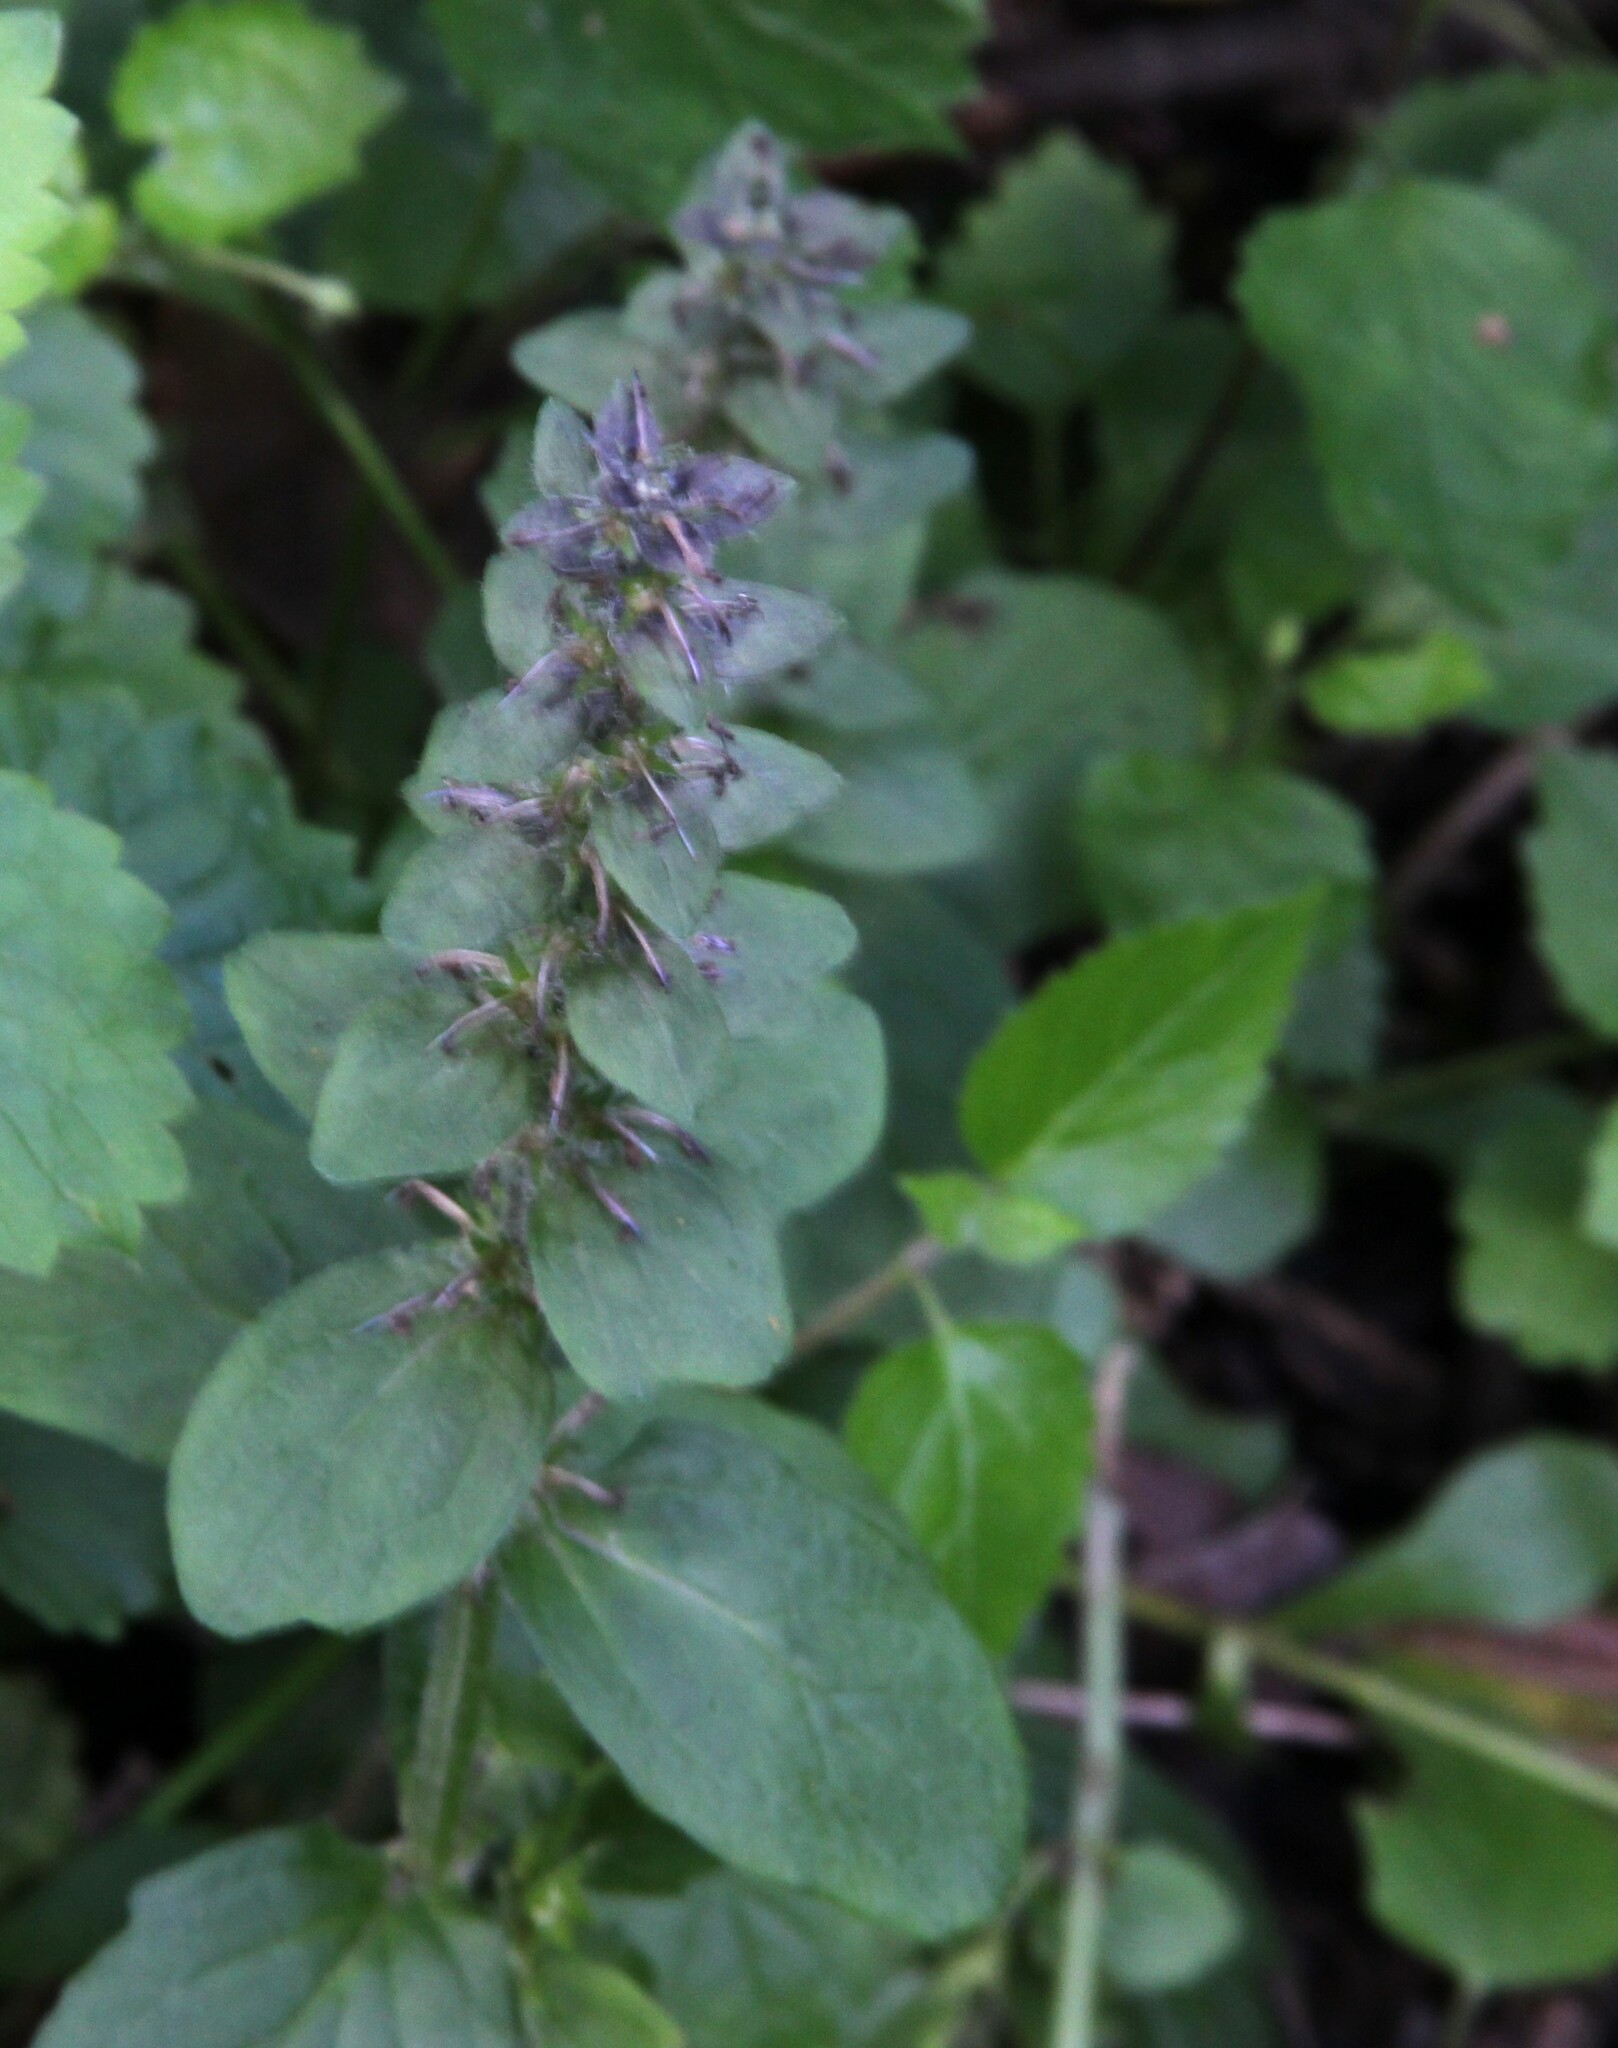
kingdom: Plantae
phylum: Tracheophyta
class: Magnoliopsida
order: Lamiales
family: Lamiaceae
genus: Ajuga
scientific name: Ajuga reptans
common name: Bugle
